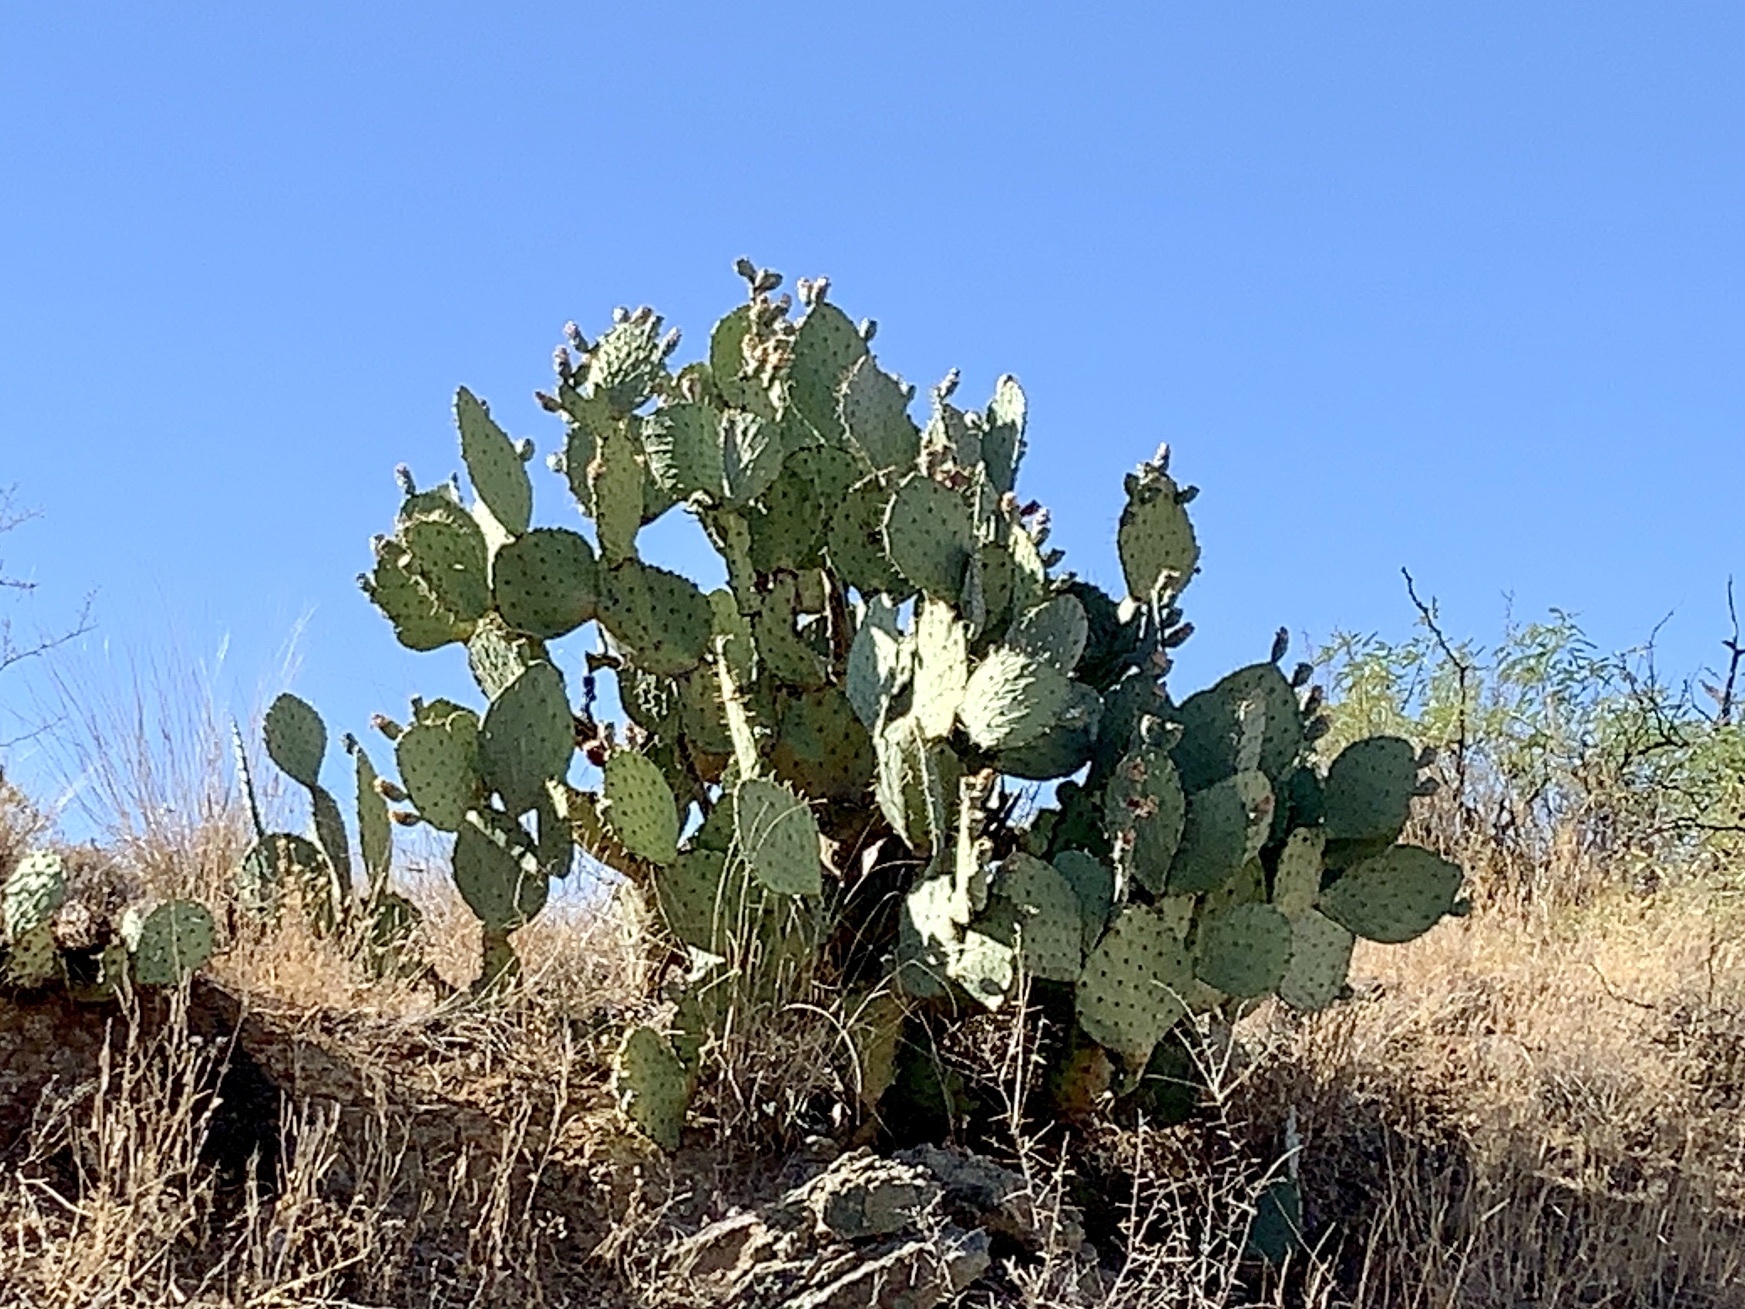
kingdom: Plantae
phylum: Tracheophyta
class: Magnoliopsida
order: Caryophyllales
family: Cactaceae
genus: Opuntia
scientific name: Opuntia engelmannii
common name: Cactus-apple
